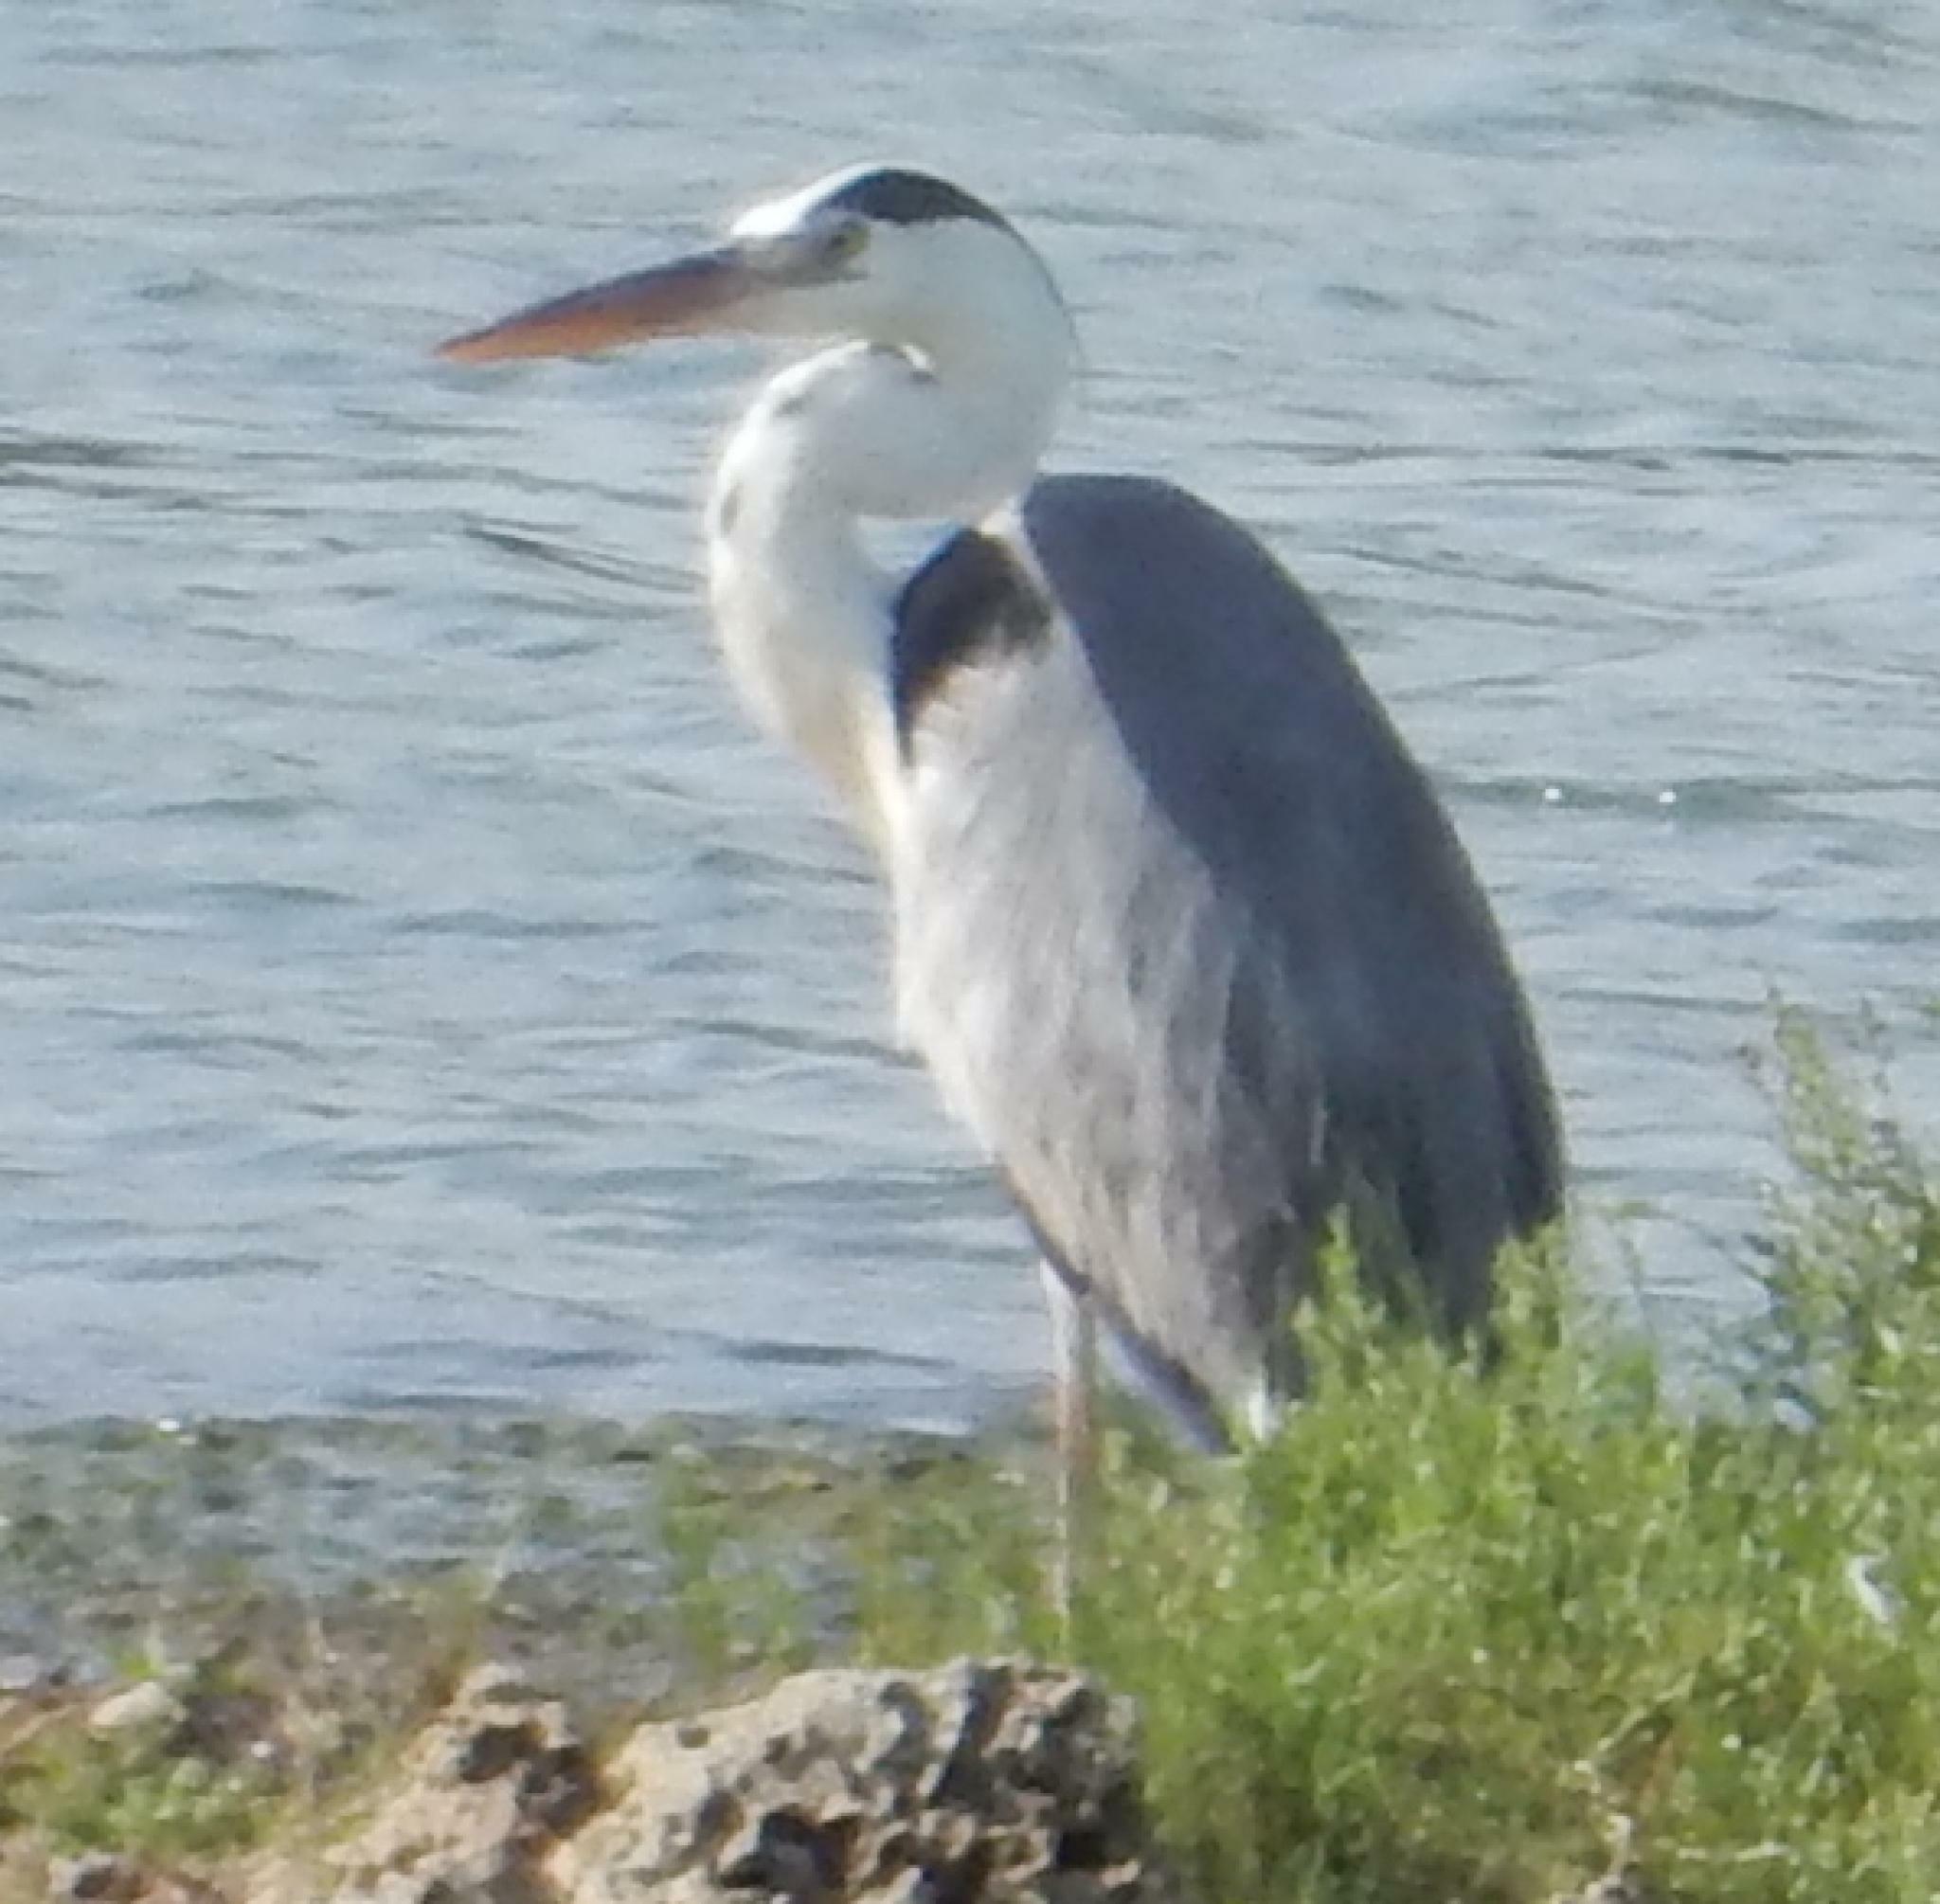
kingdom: Animalia
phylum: Chordata
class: Aves
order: Pelecaniformes
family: Ardeidae
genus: Ardea
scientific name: Ardea cinerea
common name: Grey heron
